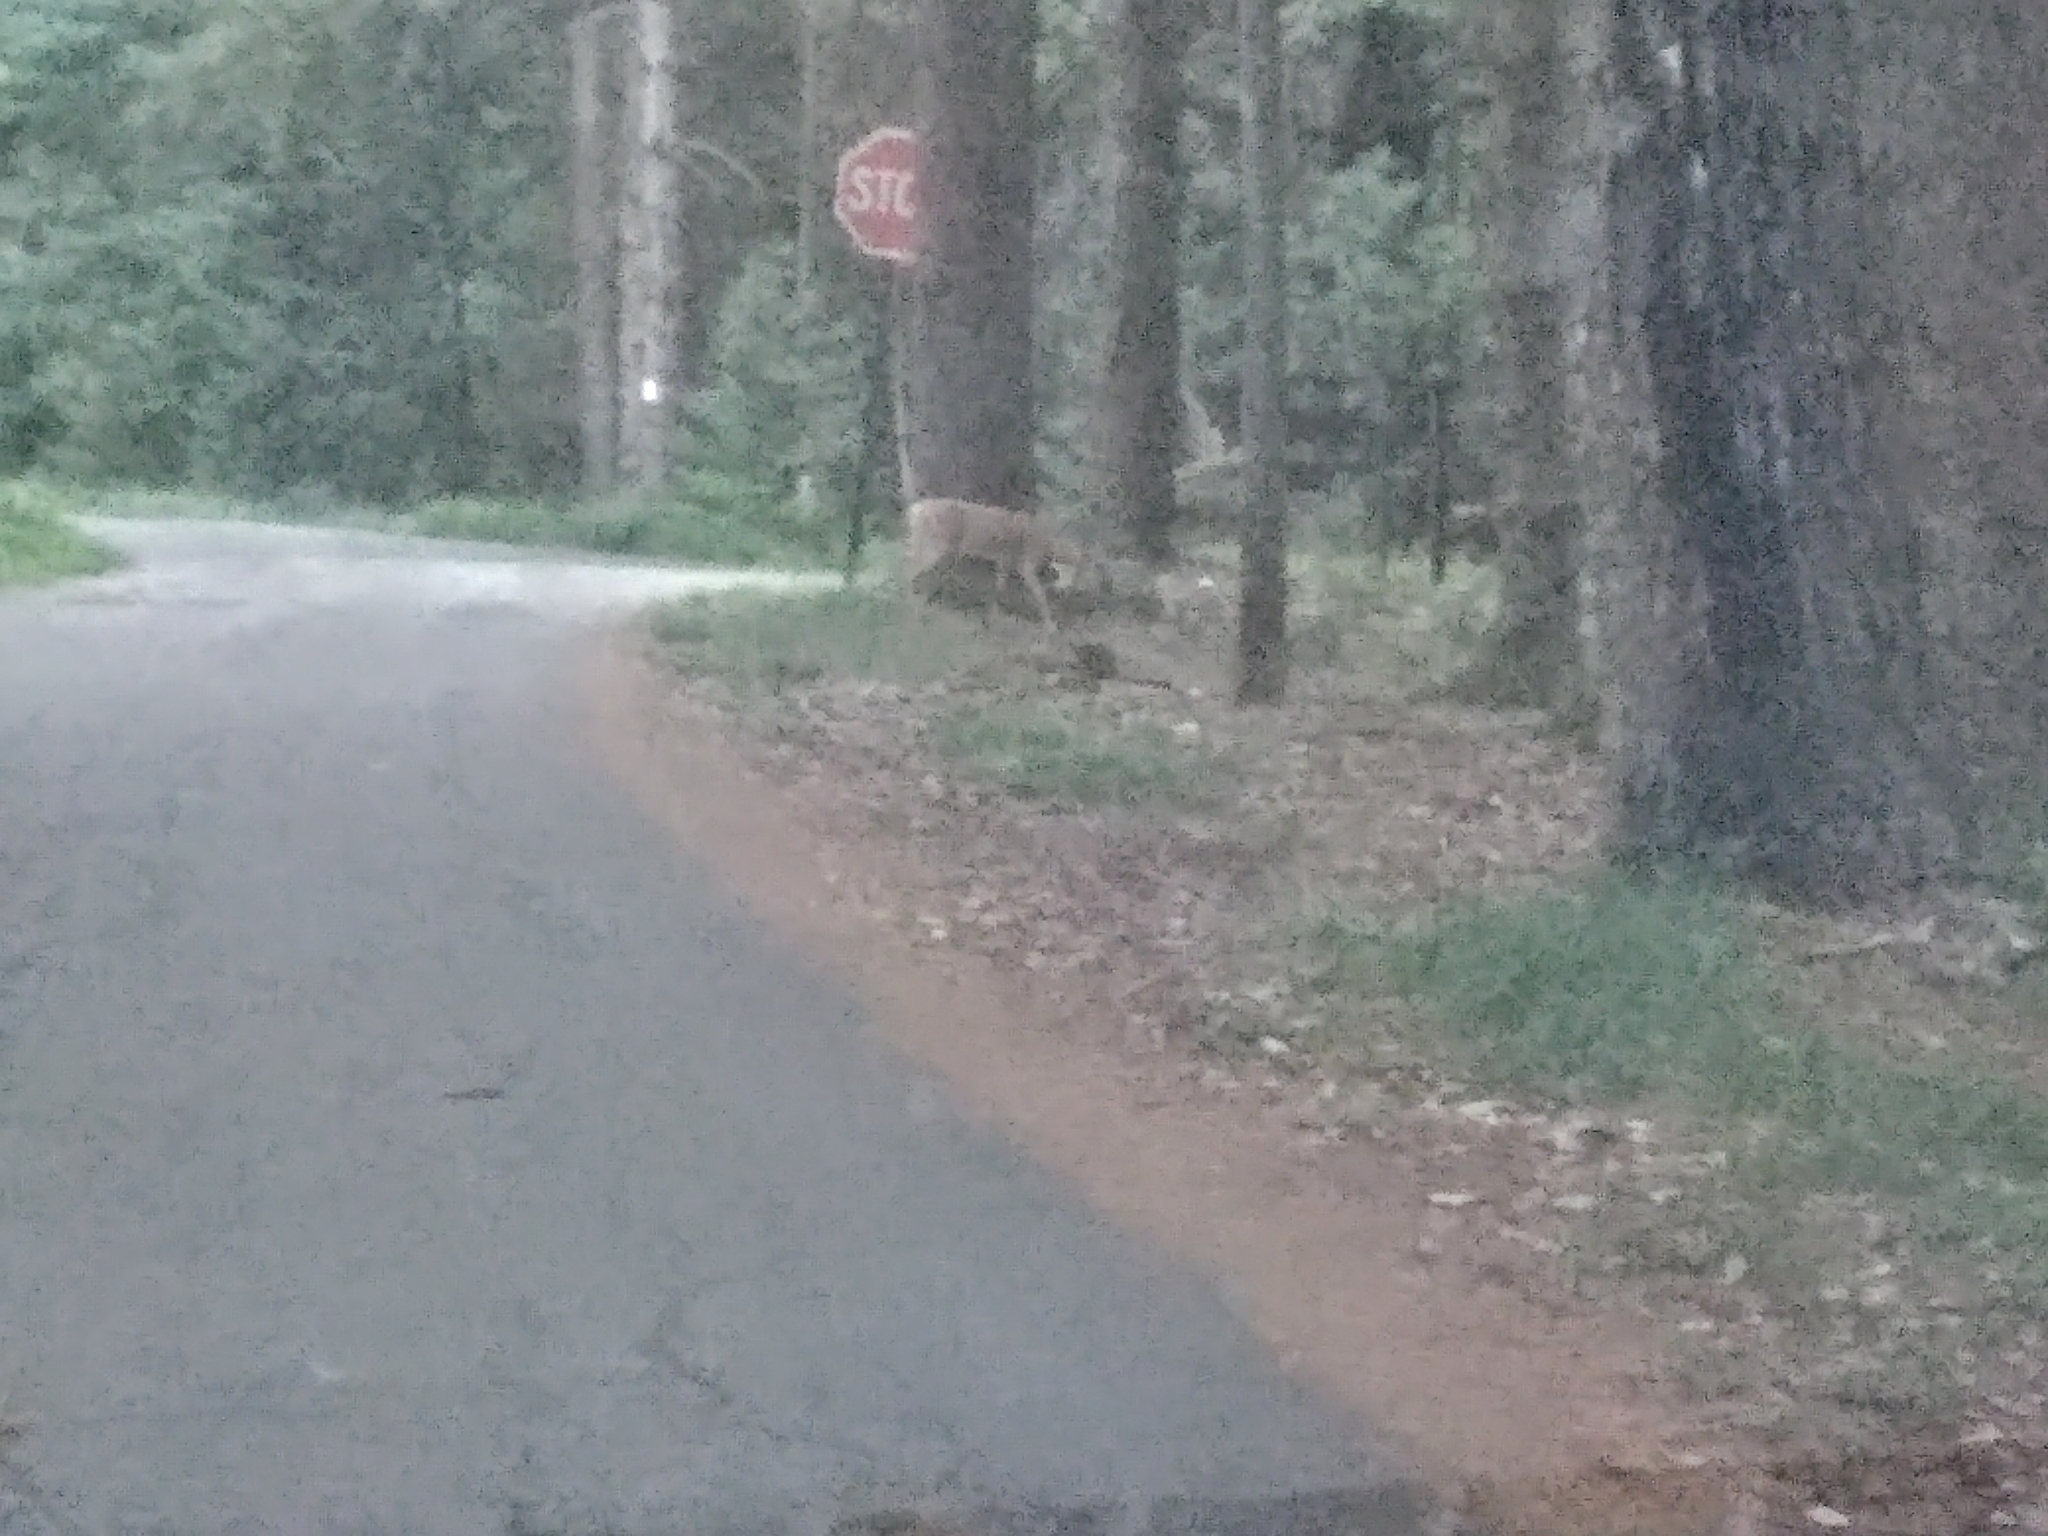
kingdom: Animalia
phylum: Chordata
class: Mammalia
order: Artiodactyla
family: Cervidae
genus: Odocoileus
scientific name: Odocoileus virginianus
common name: White-tailed deer
